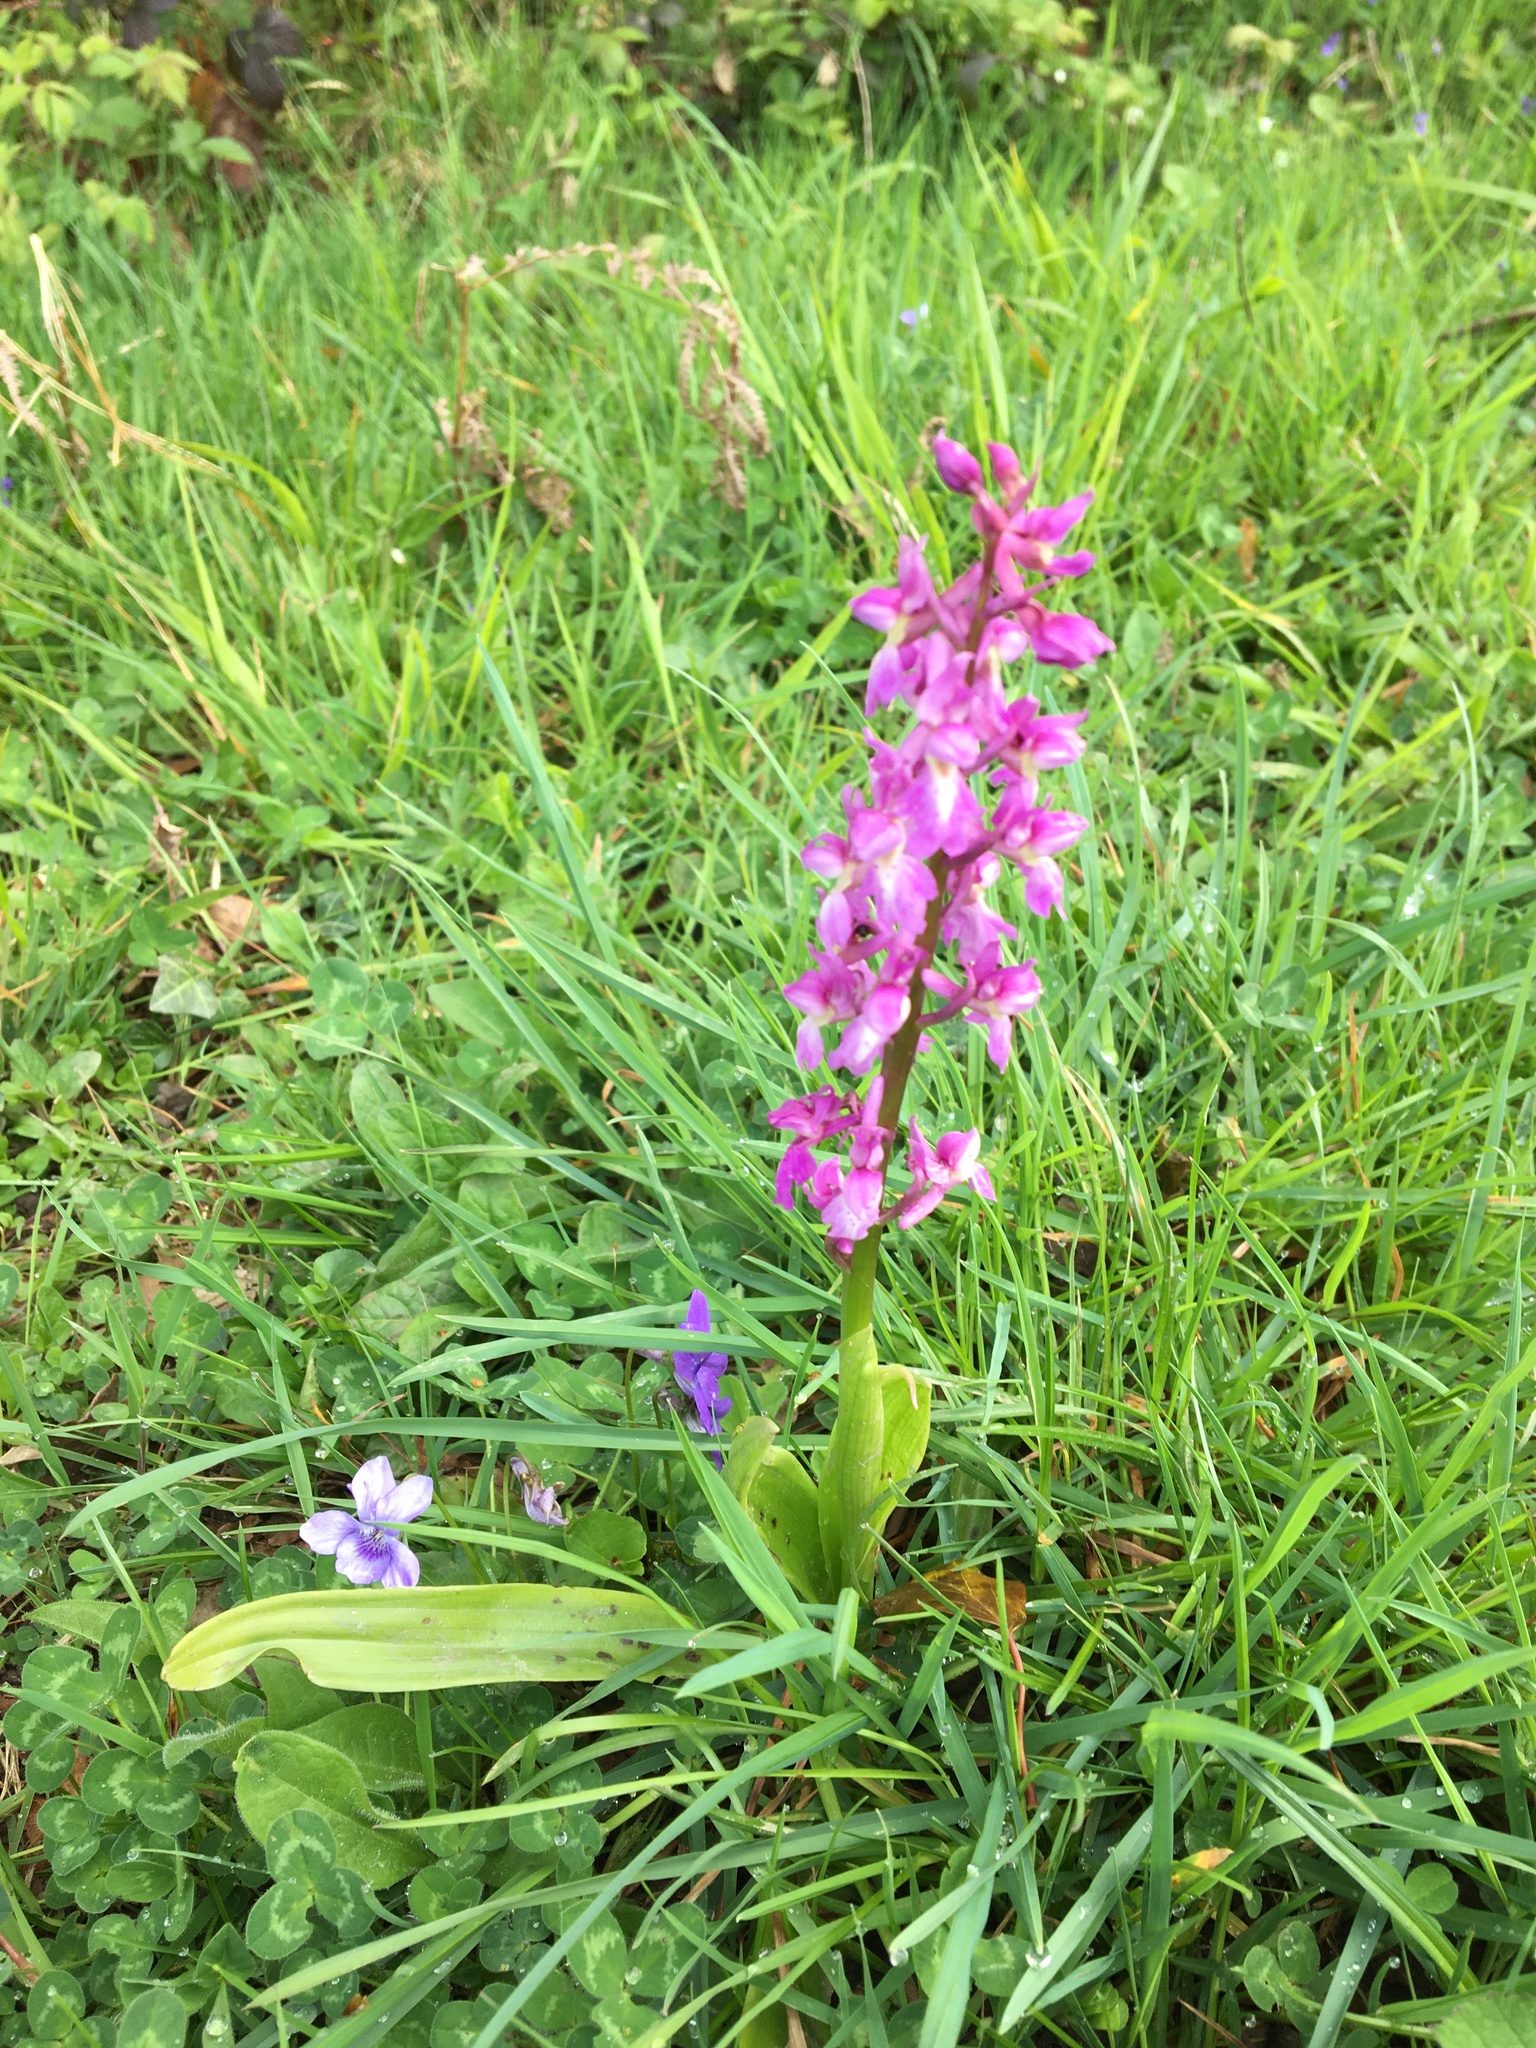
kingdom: Plantae
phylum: Tracheophyta
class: Liliopsida
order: Asparagales
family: Orchidaceae
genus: Orchis
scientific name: Orchis mascula
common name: Early-purple orchid
